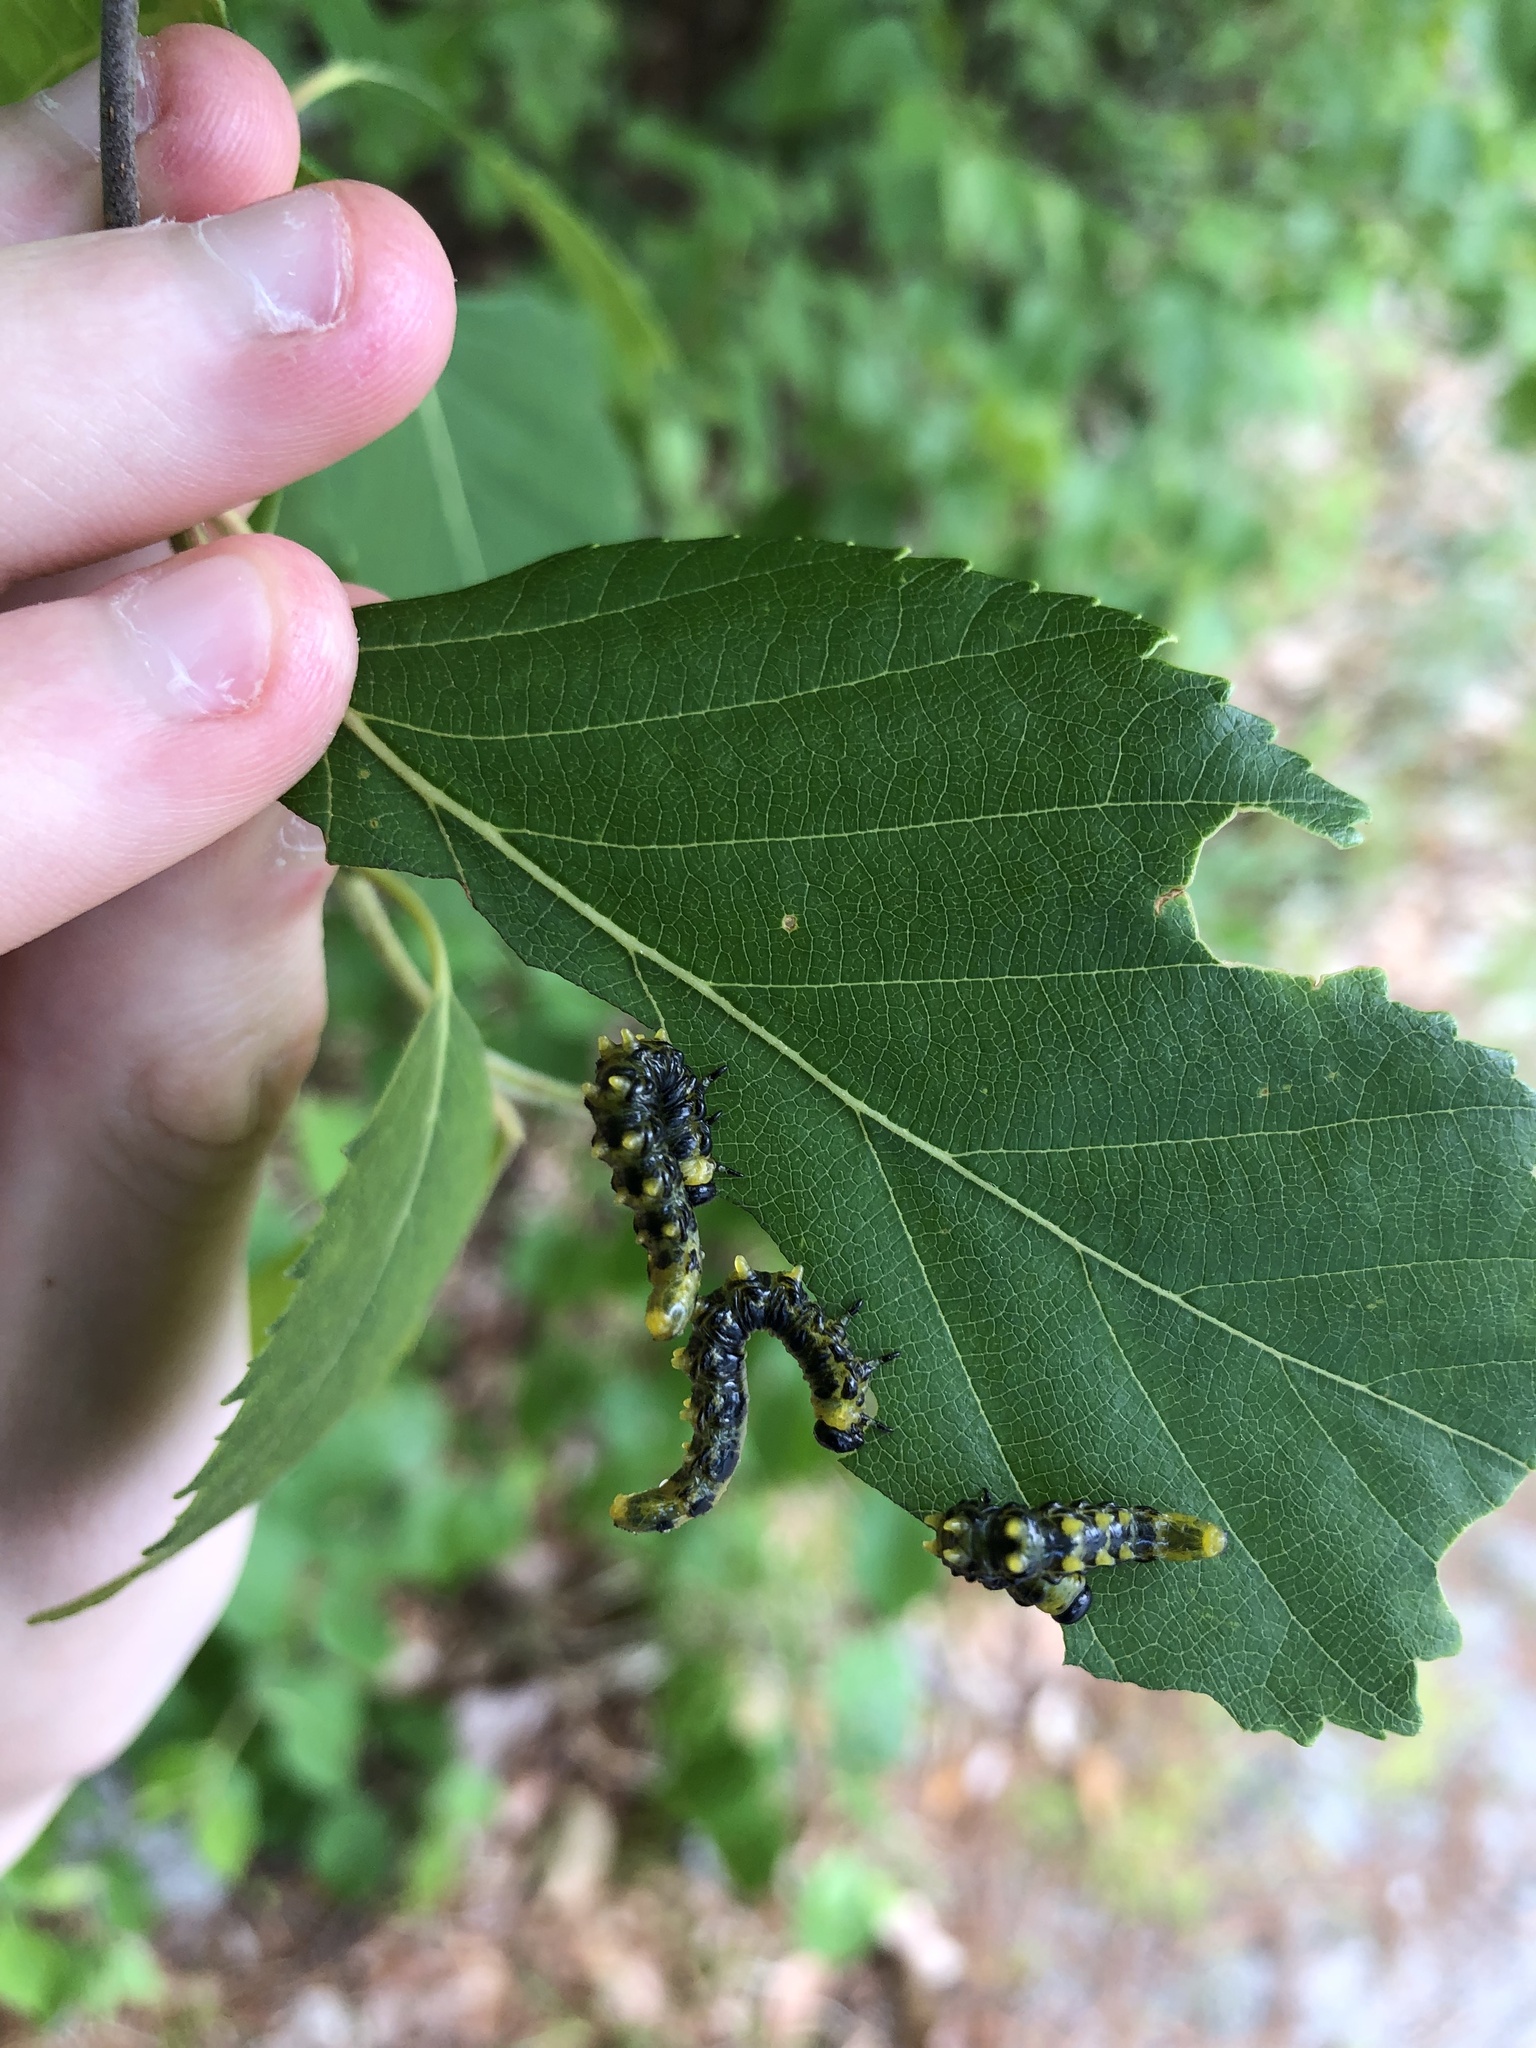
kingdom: Animalia
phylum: Arthropoda
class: Insecta
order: Hymenoptera
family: Tenthredinidae
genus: Nematus
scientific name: Nematus
